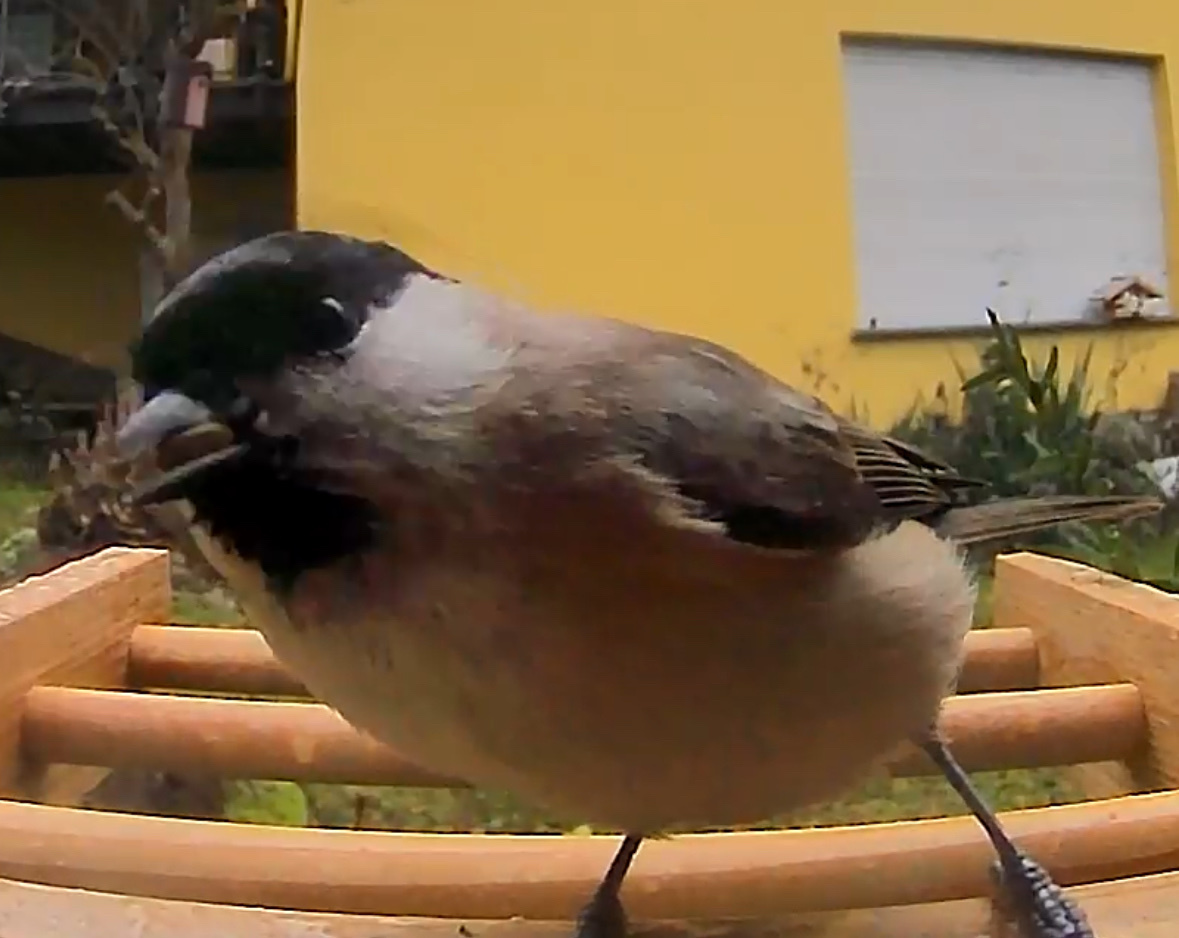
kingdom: Animalia
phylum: Chordata
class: Aves
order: Passeriformes
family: Paridae
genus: Poecile
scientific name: Poecile palustris
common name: Marsh tit
